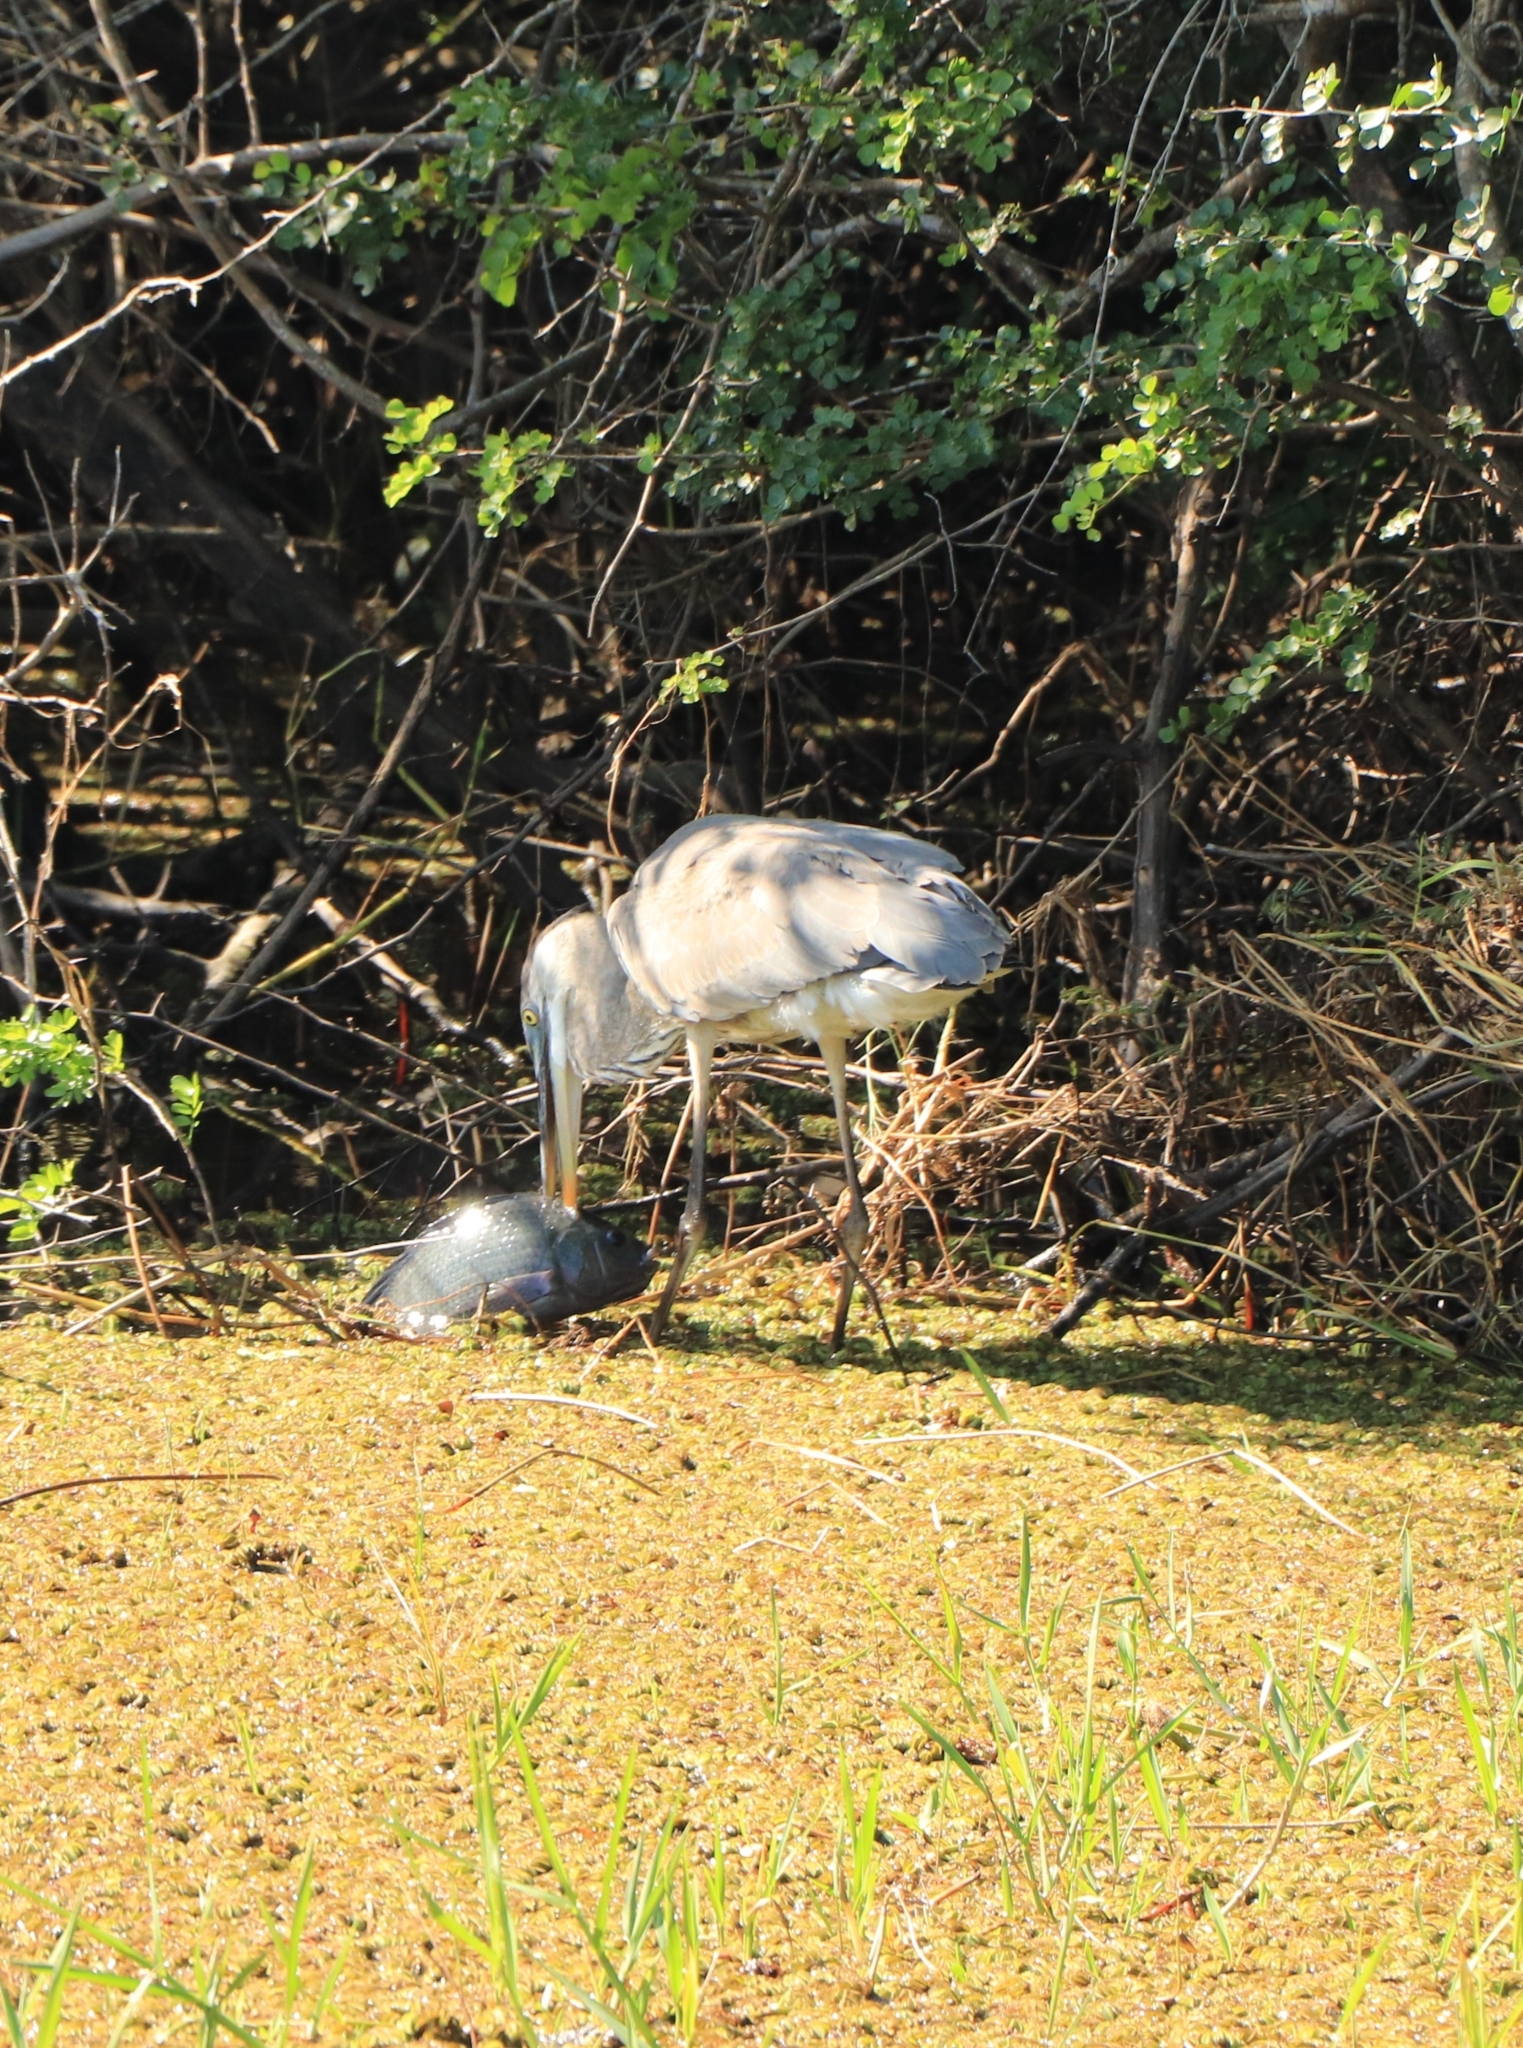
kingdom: Animalia
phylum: Chordata
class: Aves
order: Pelecaniformes
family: Ardeidae
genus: Ardea
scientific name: Ardea herodias
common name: Great blue heron
